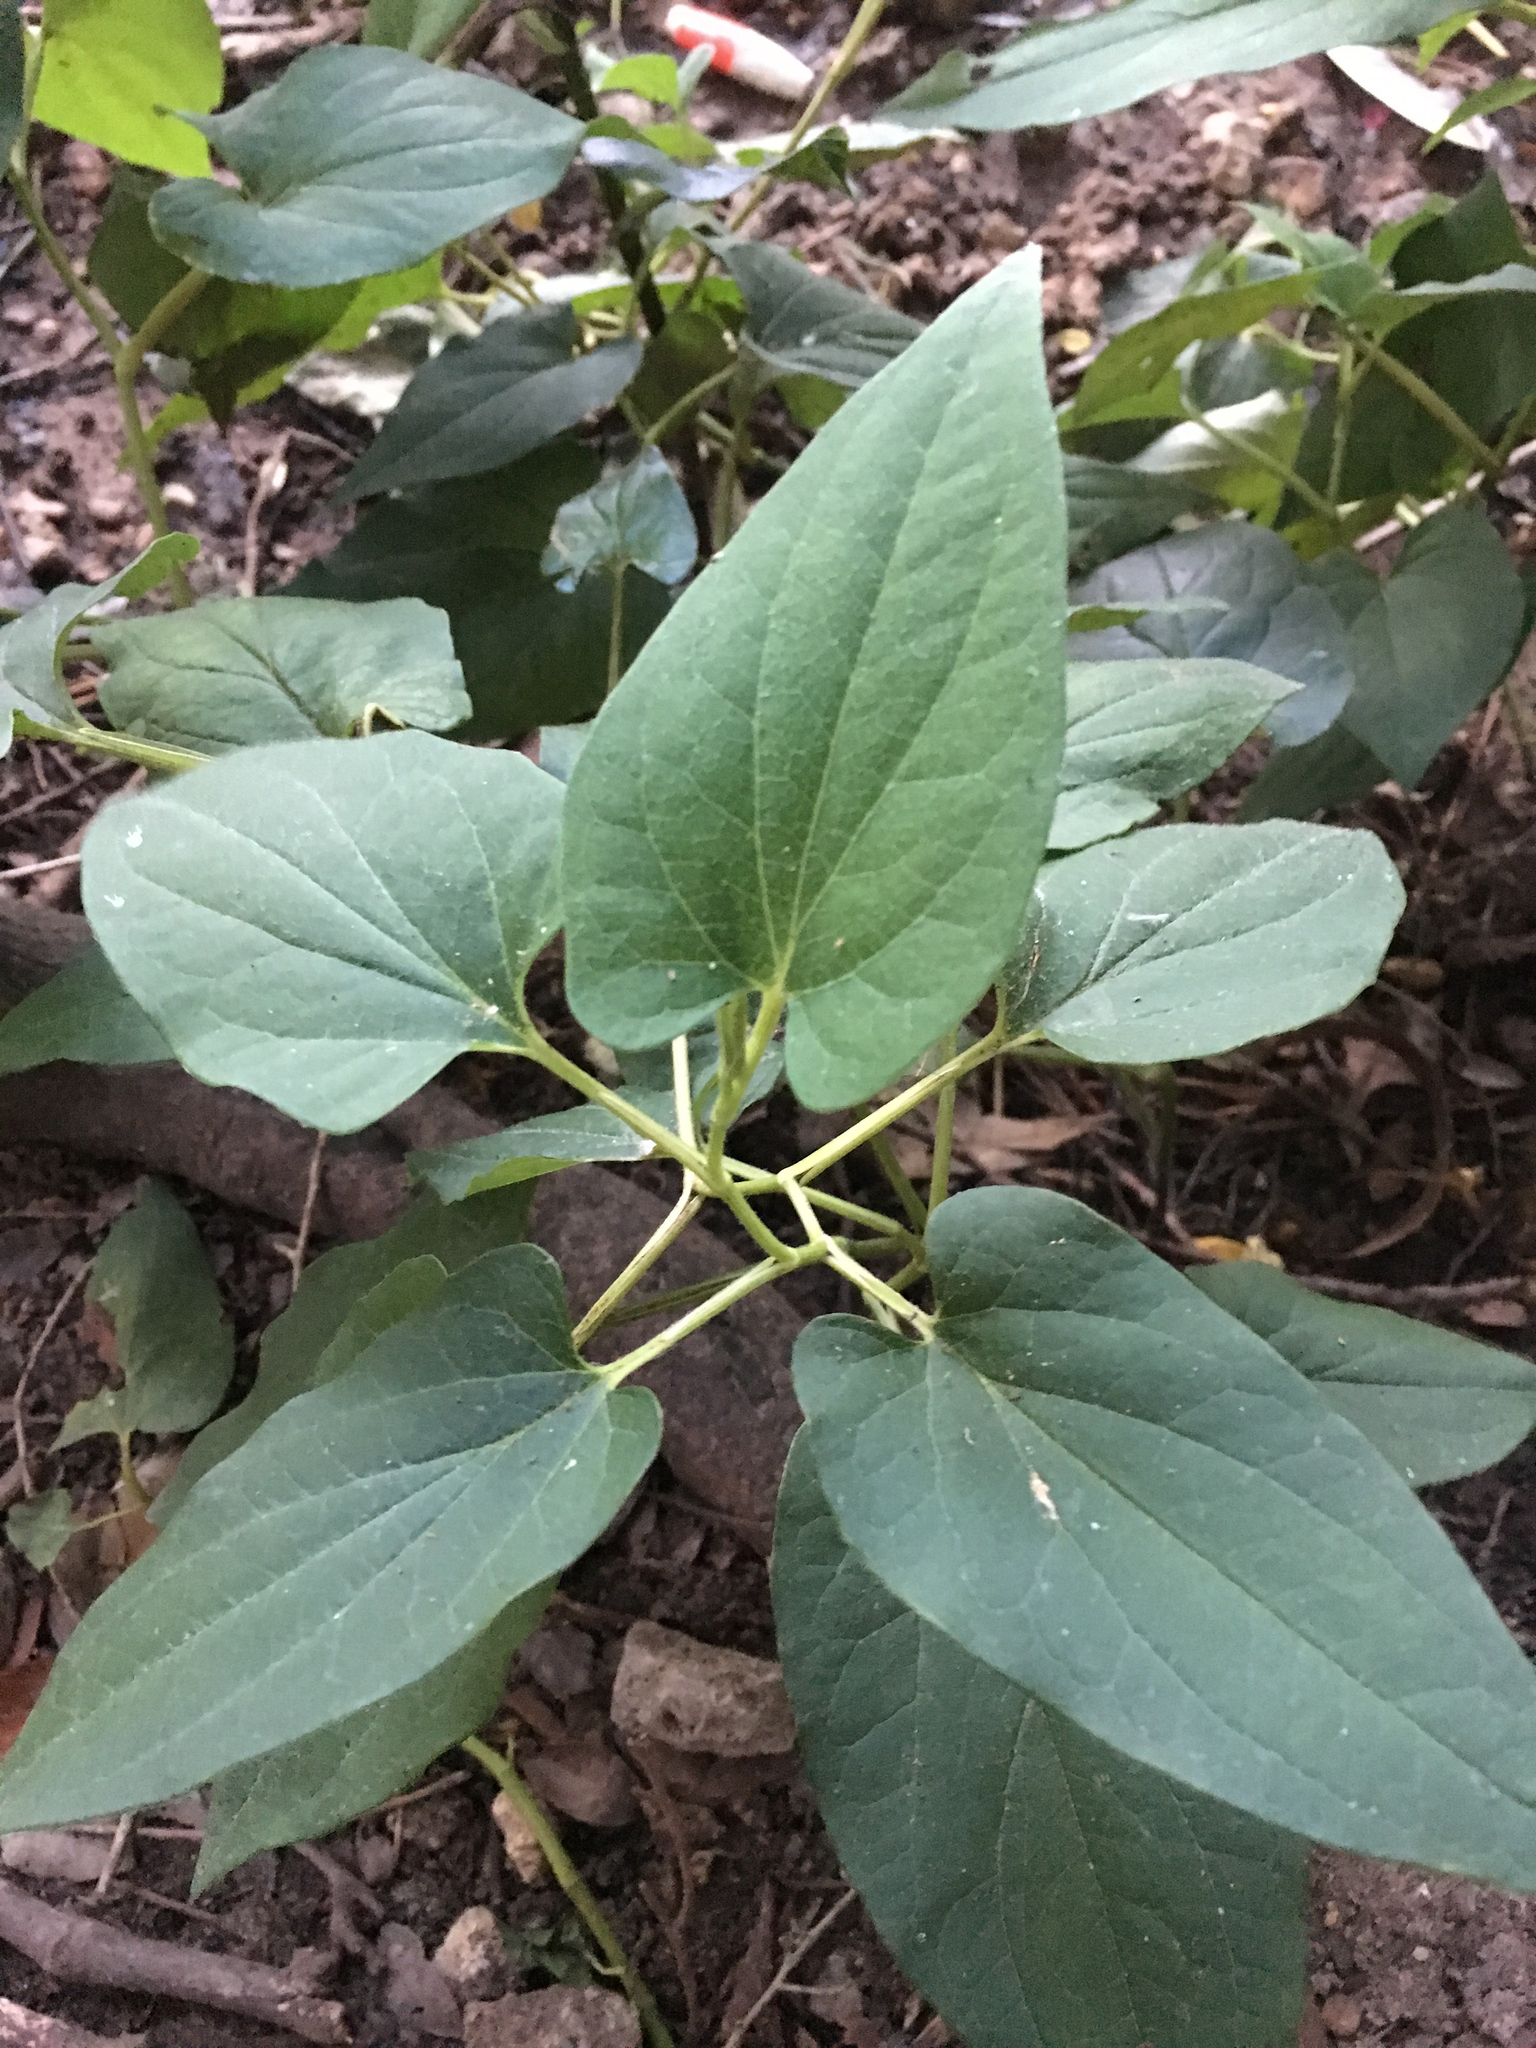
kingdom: Plantae
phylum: Tracheophyta
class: Magnoliopsida
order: Piperales
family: Saururaceae
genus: Saururus
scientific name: Saururus cernuus
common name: Lizard's-tail
